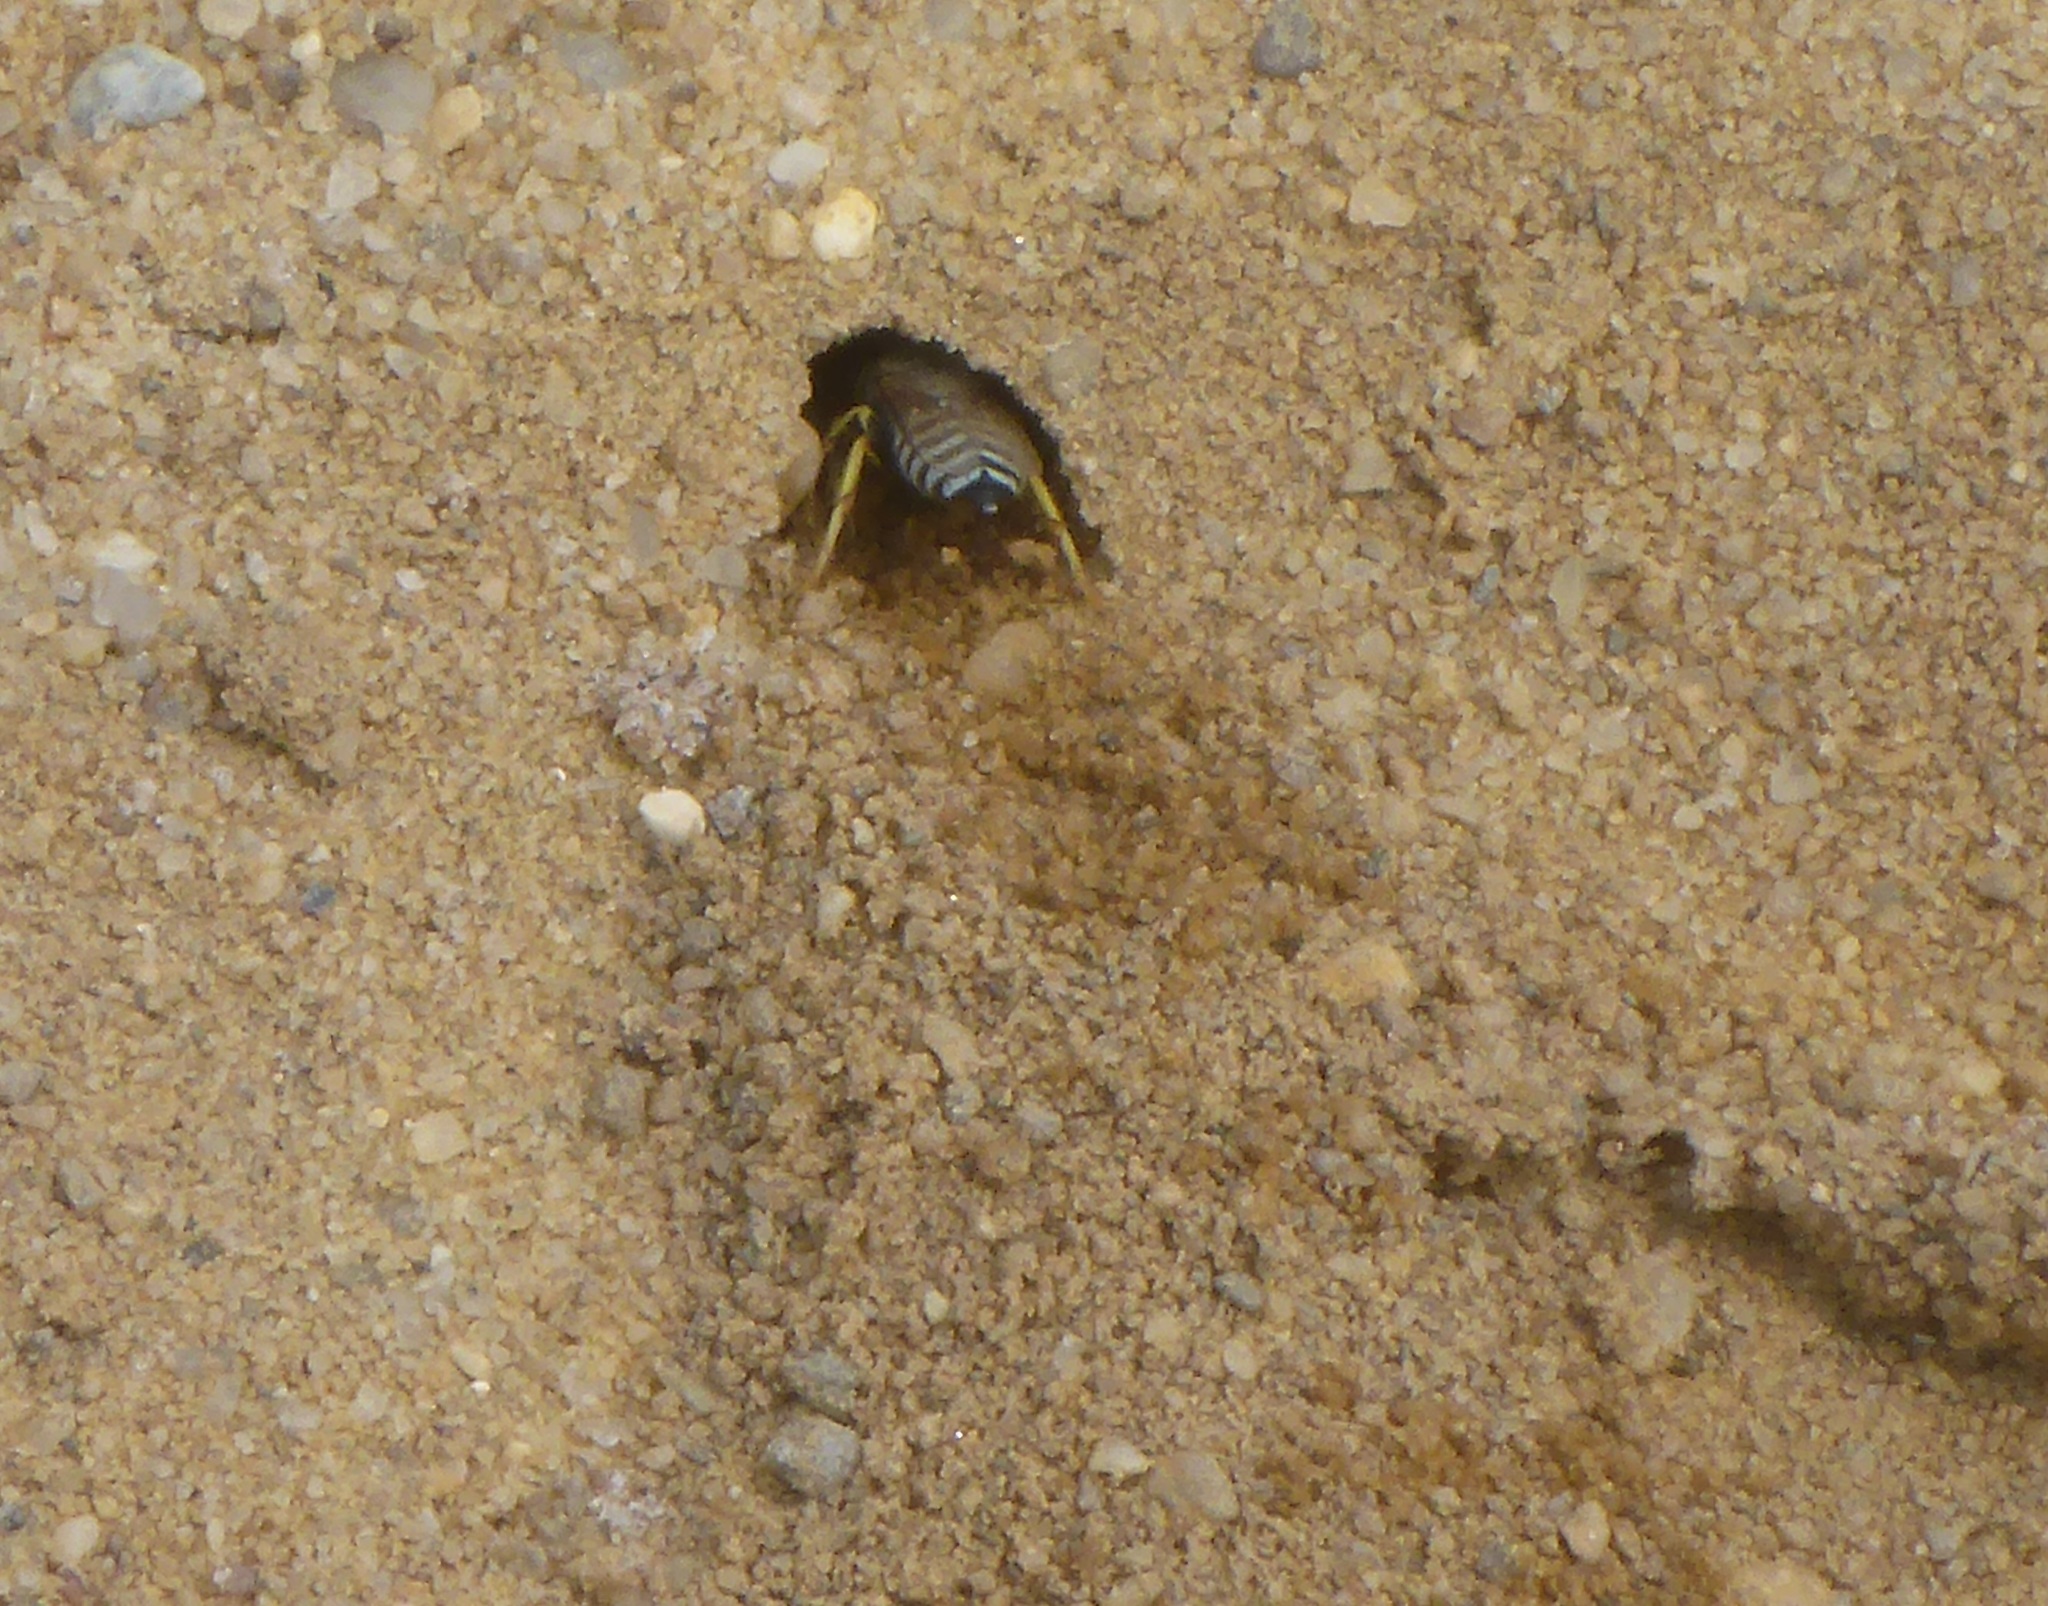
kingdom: Animalia
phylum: Arthropoda
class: Insecta
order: Hymenoptera
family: Crabronidae
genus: Bembix
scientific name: Bembix americana
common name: American sand wasp
